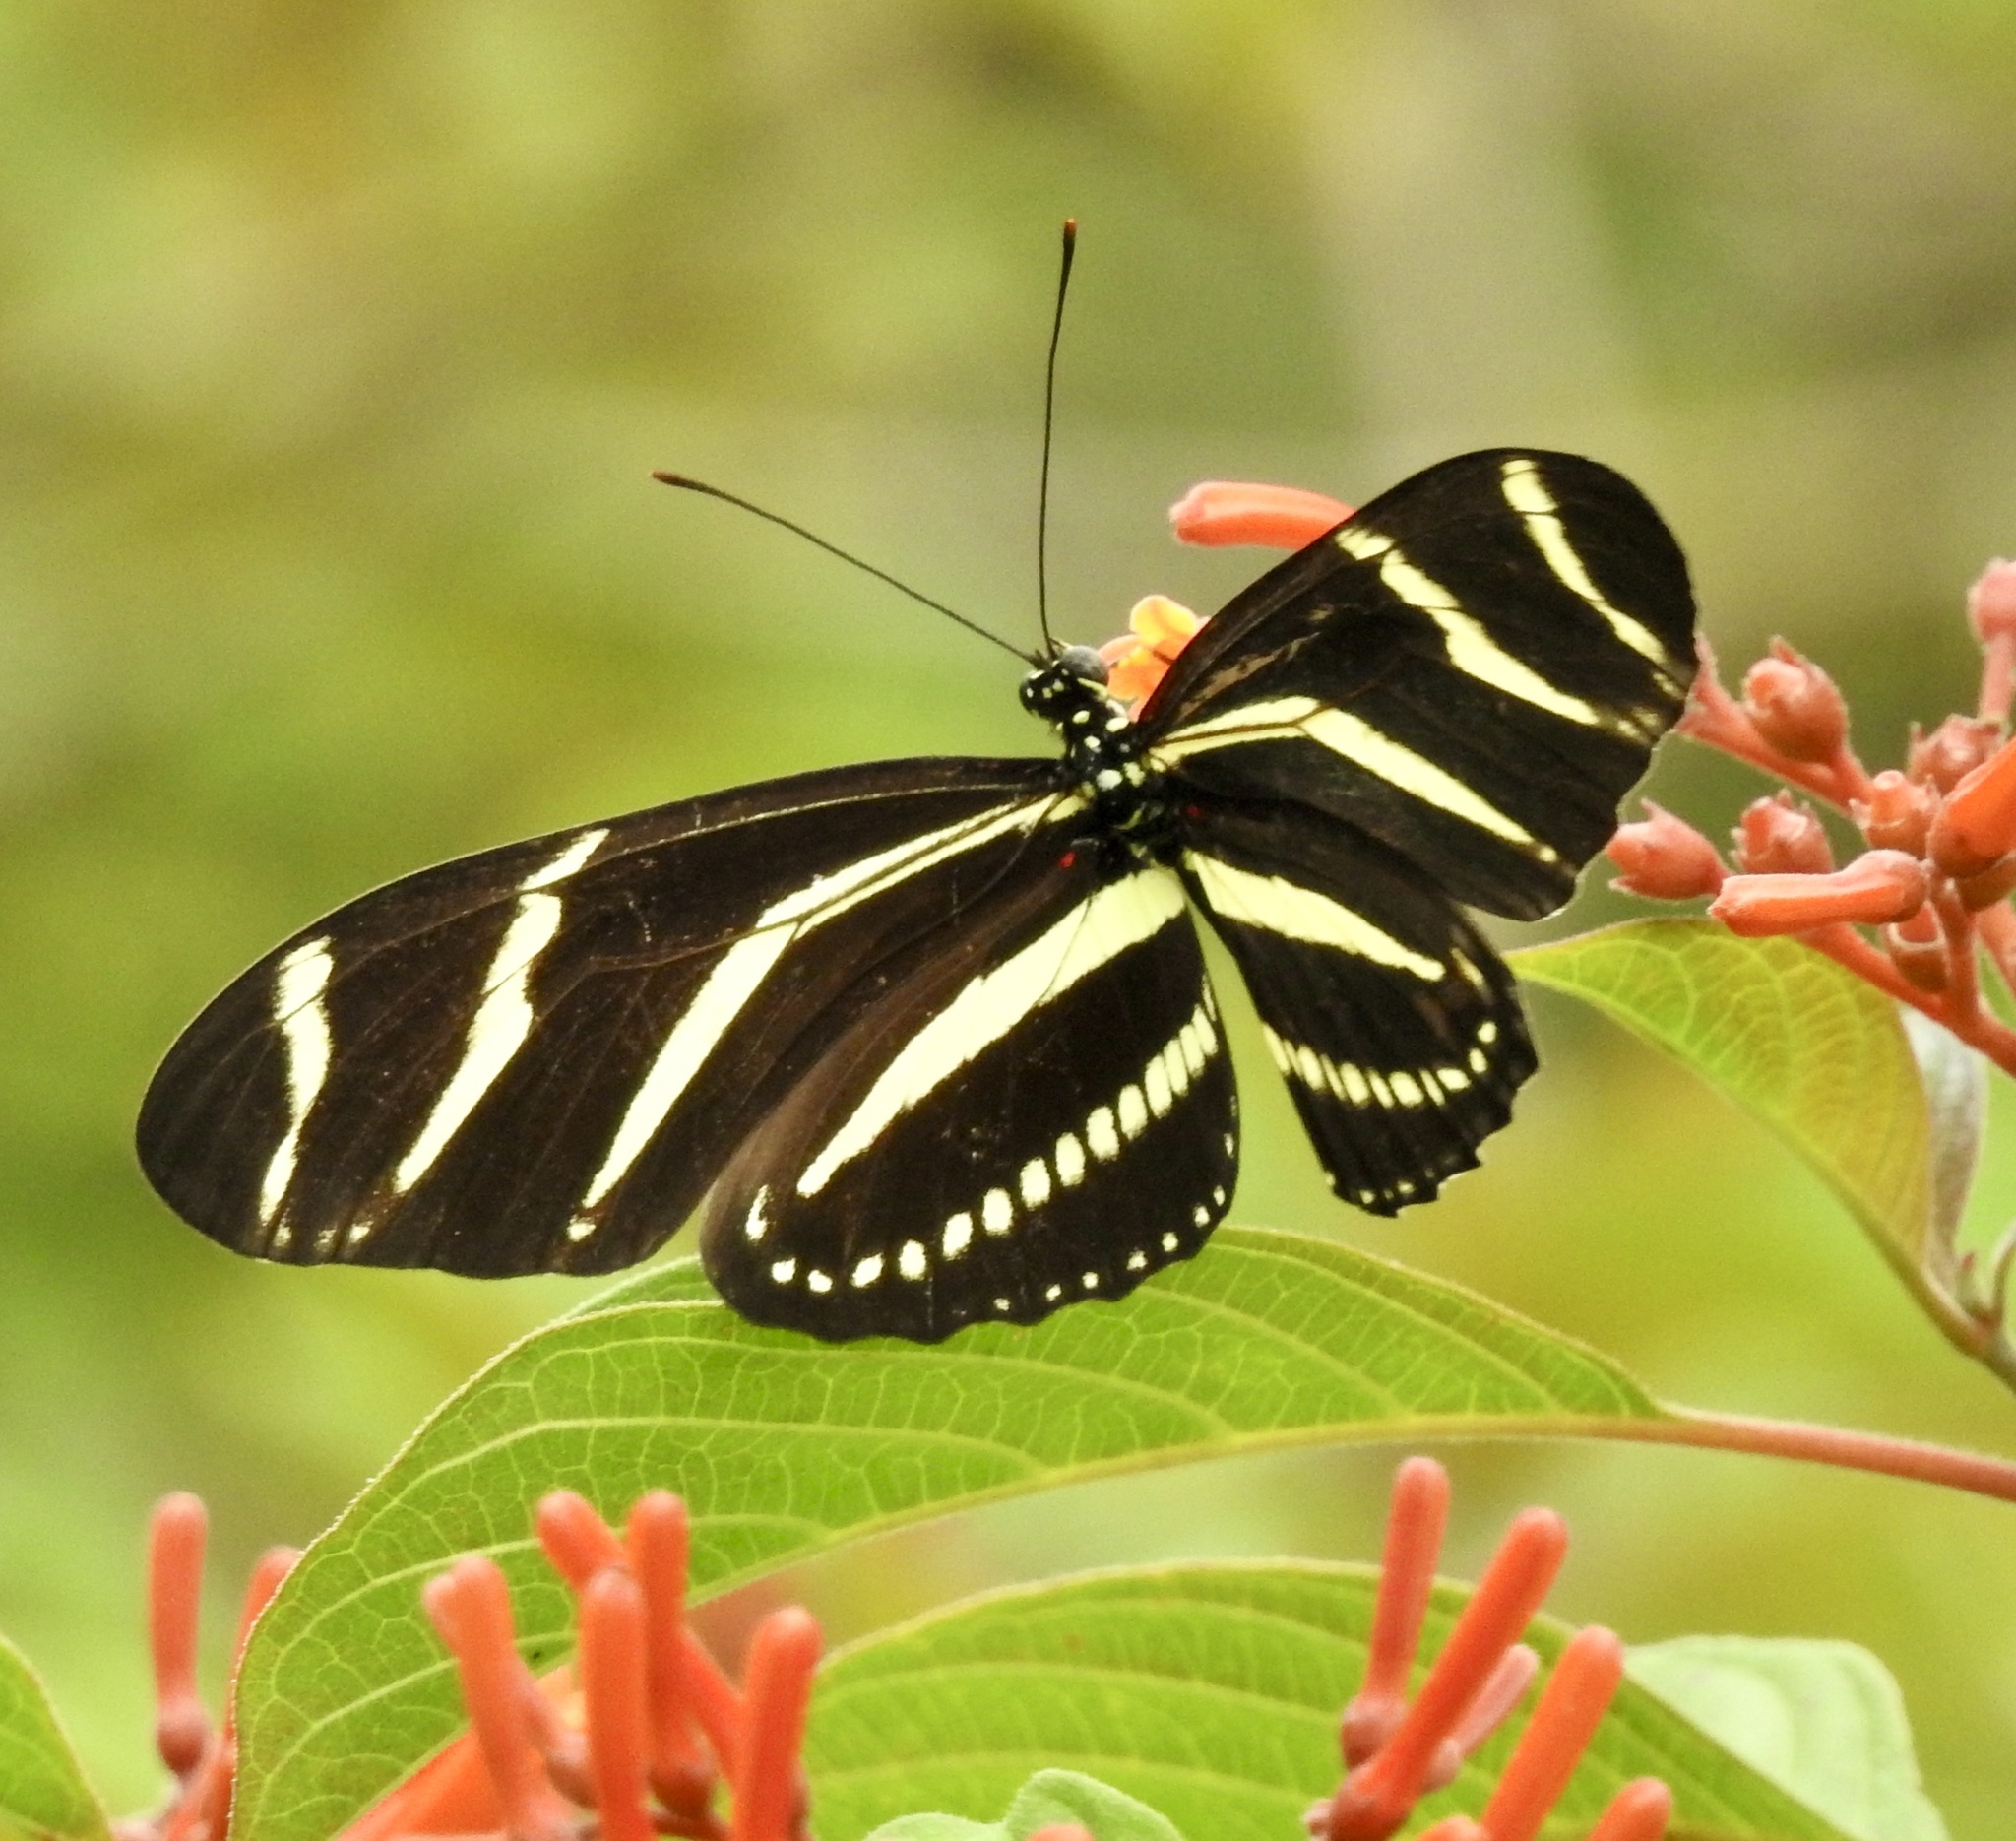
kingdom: Animalia
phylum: Arthropoda
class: Insecta
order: Lepidoptera
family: Nymphalidae
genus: Heliconius
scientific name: Heliconius charithonia
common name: Zebra long wing
